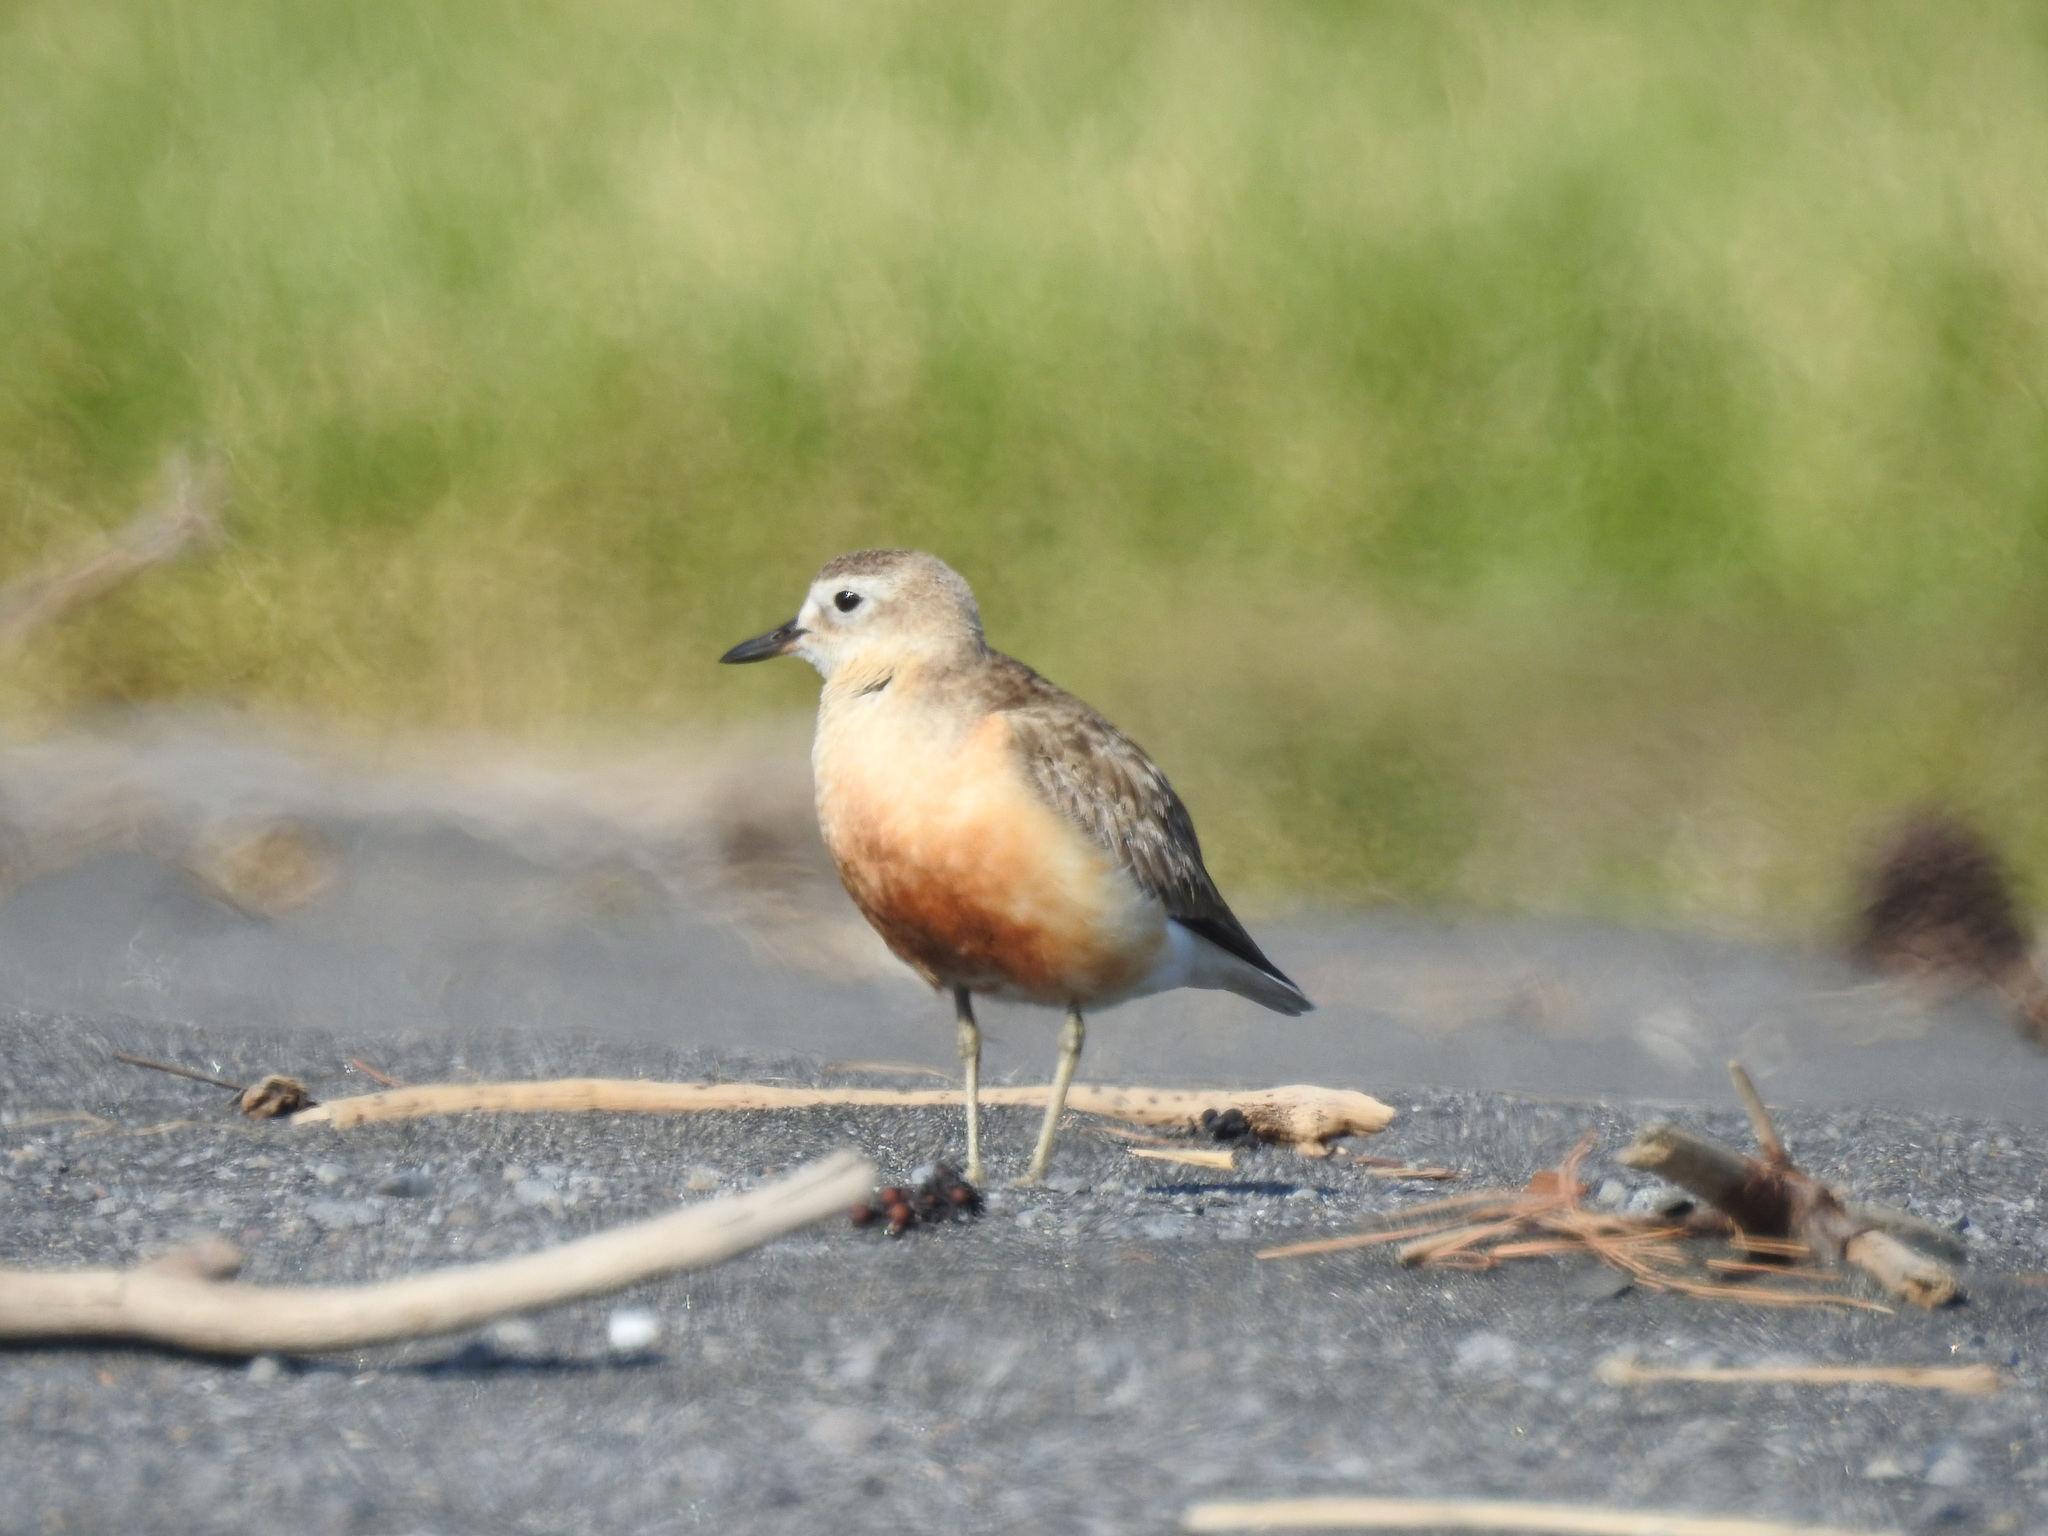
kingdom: Animalia
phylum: Chordata
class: Aves
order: Charadriiformes
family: Charadriidae
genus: Anarhynchus
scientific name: Anarhynchus
